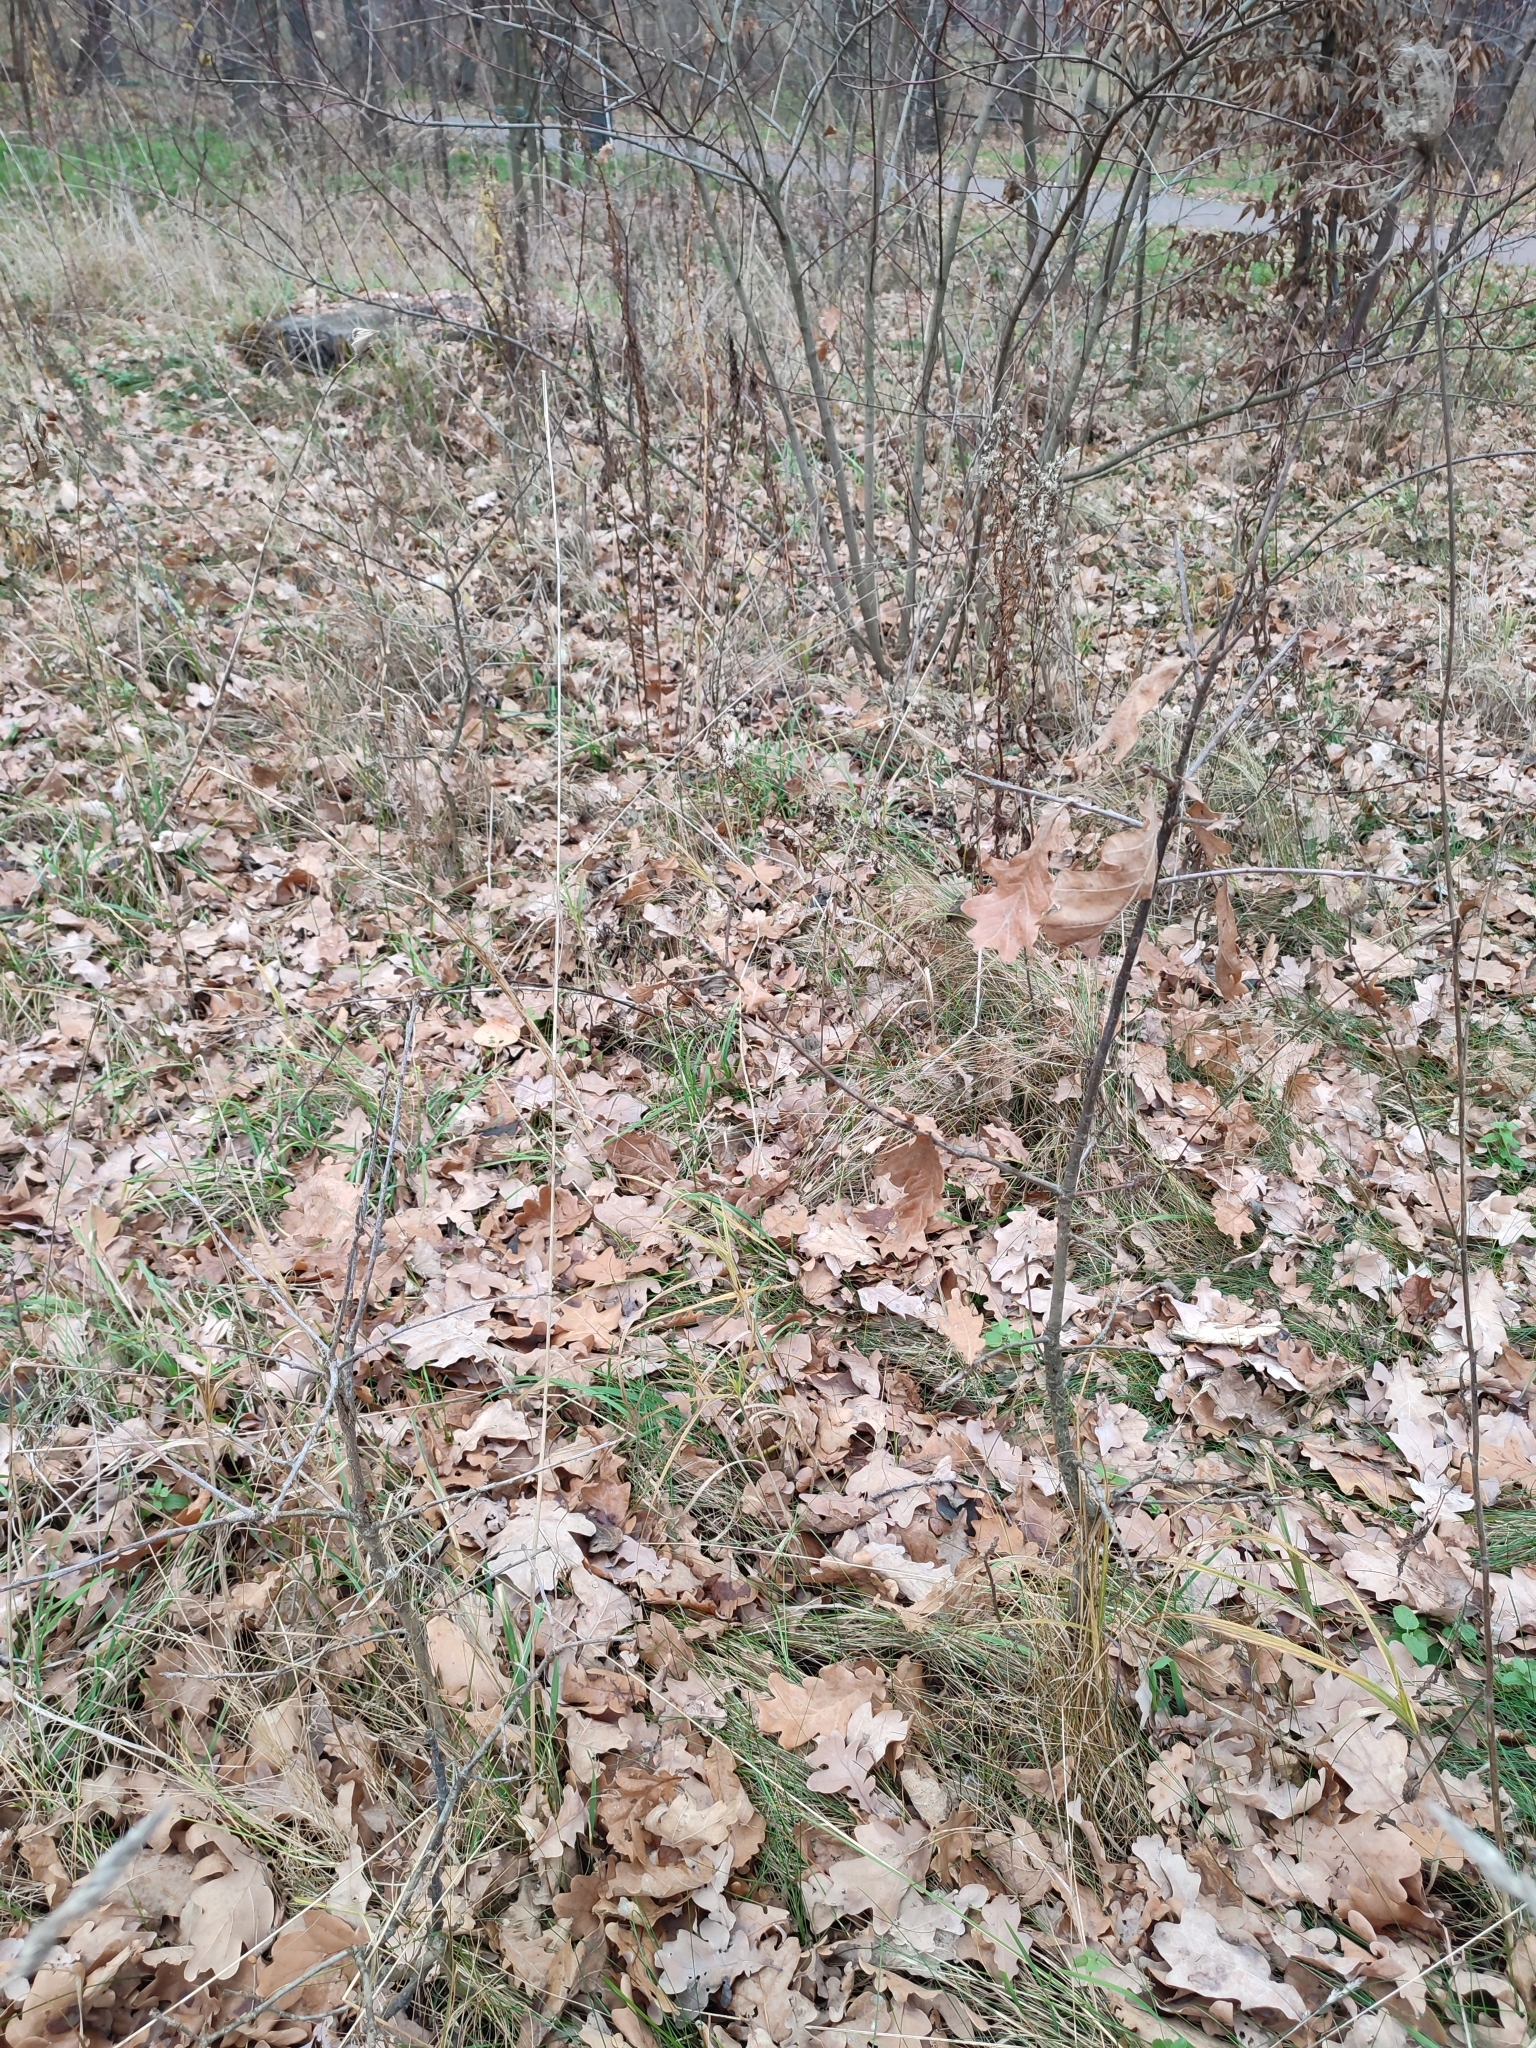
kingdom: Plantae
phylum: Tracheophyta
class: Magnoliopsida
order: Fagales
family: Fagaceae
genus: Quercus
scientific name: Quercus robur
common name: Pedunculate oak
